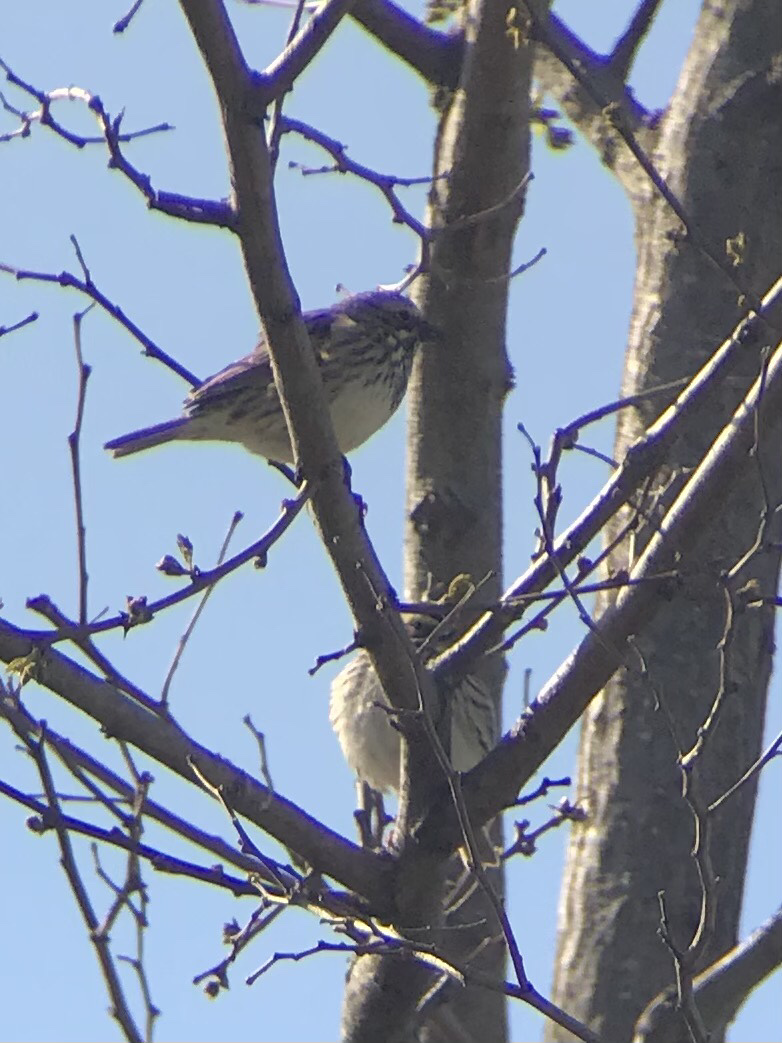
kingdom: Animalia
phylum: Chordata
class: Aves
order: Passeriformes
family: Passerellidae
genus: Passerculus
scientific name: Passerculus sandwichensis
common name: Savannah sparrow
